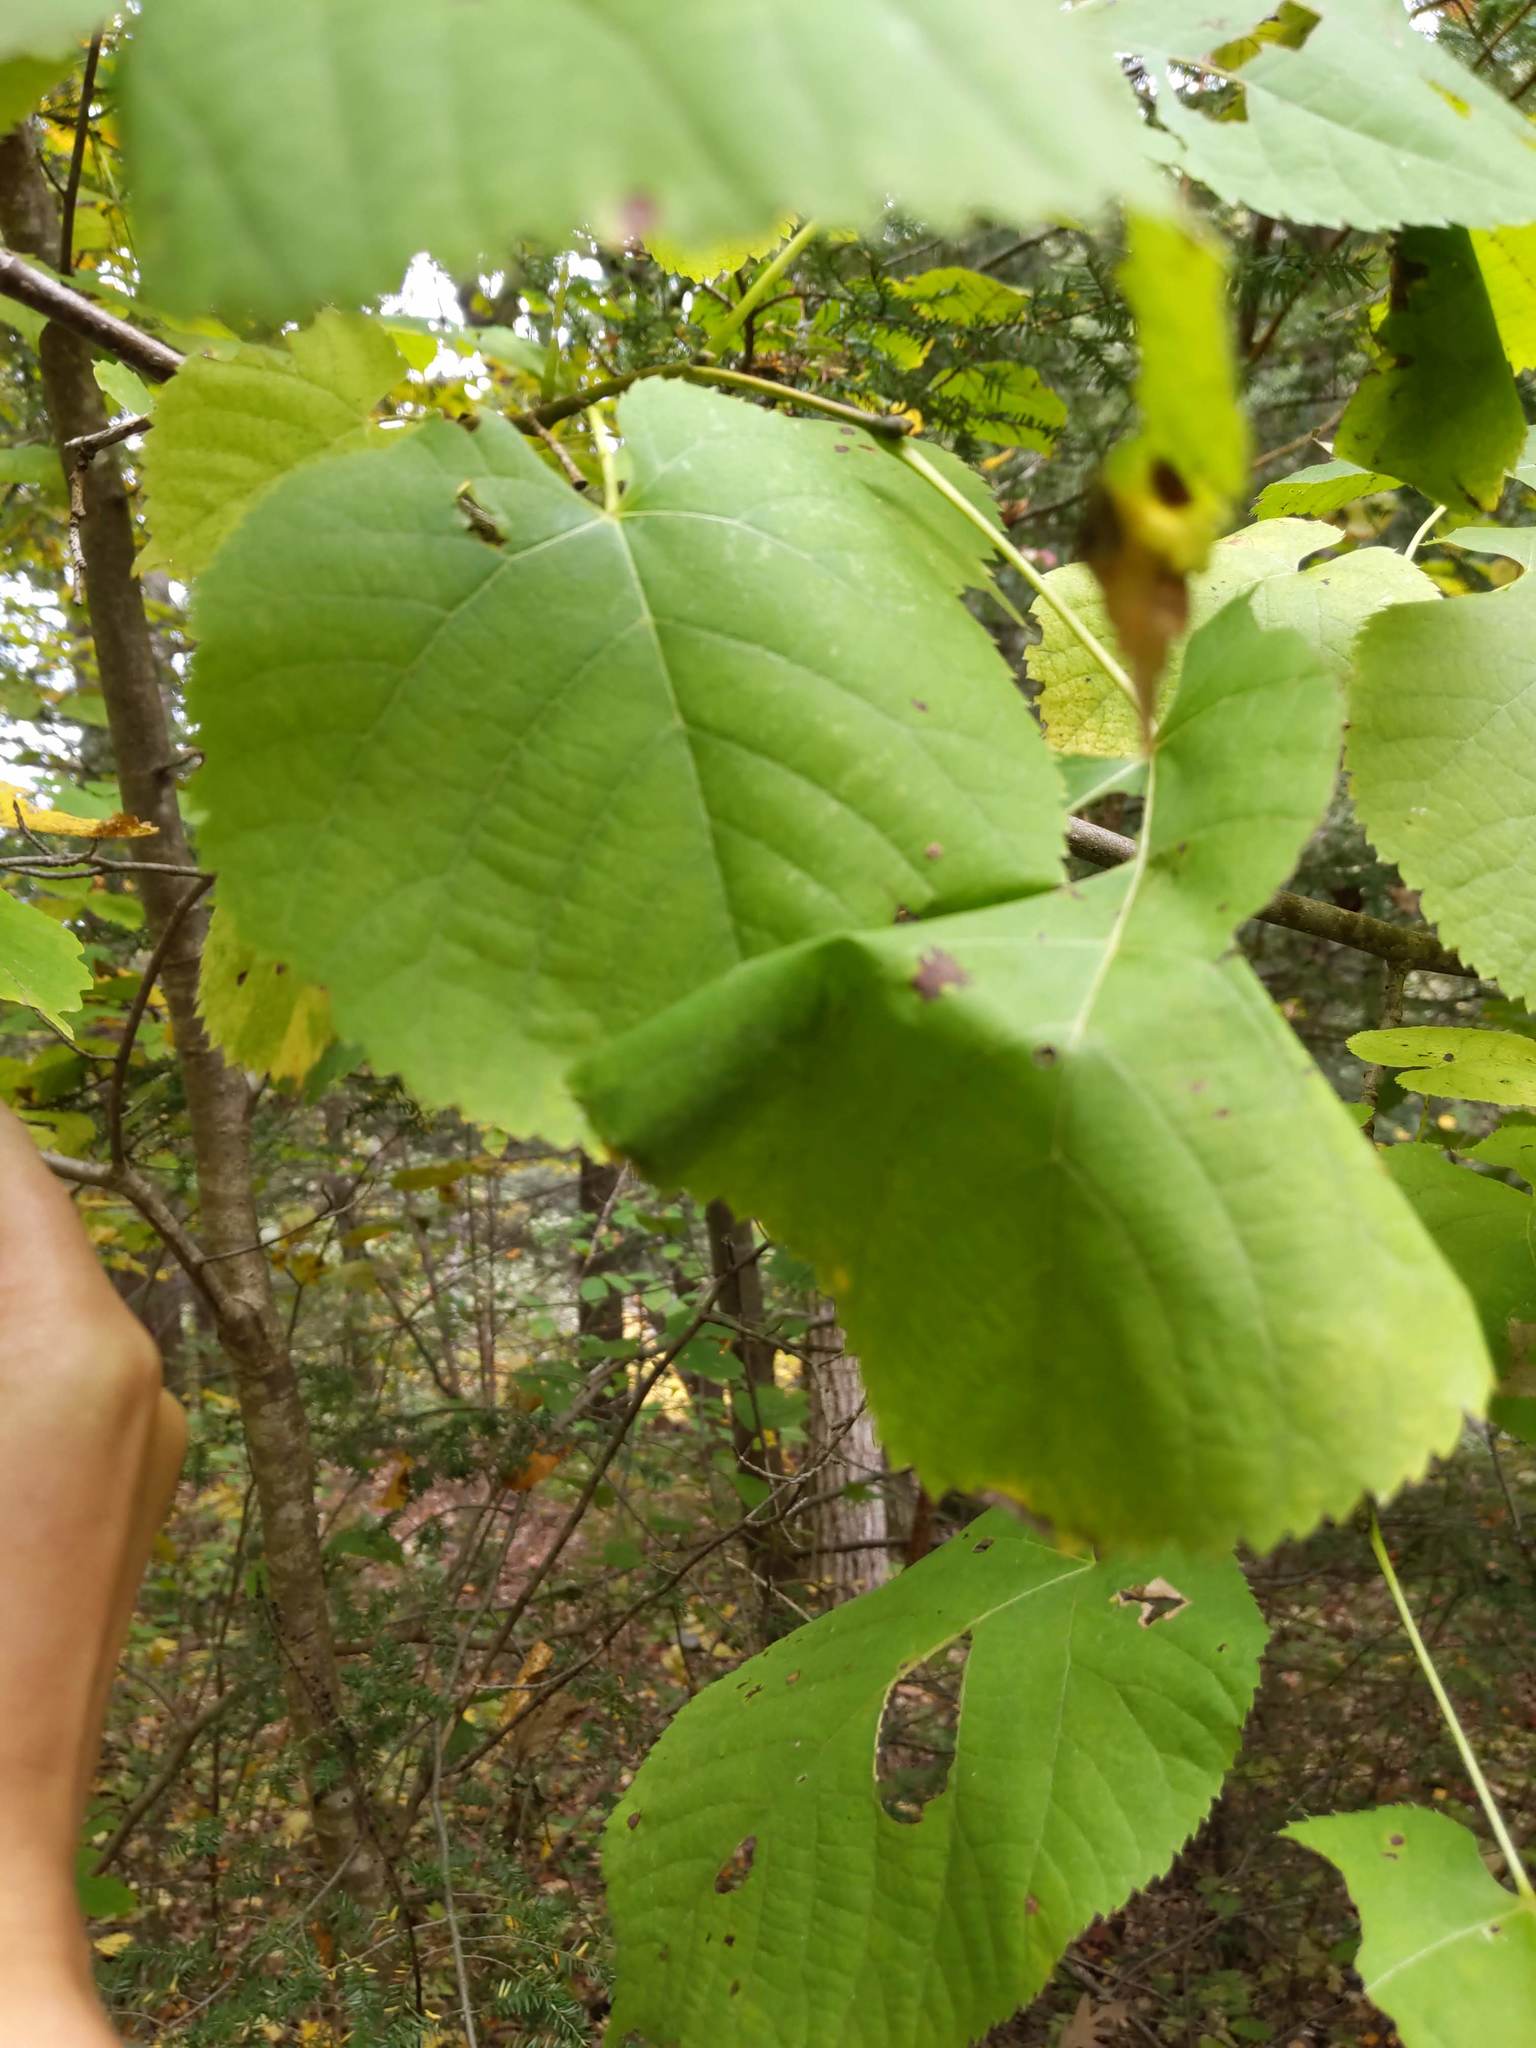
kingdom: Plantae
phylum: Tracheophyta
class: Magnoliopsida
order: Malvales
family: Malvaceae
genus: Tilia
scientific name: Tilia americana
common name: Basswood
